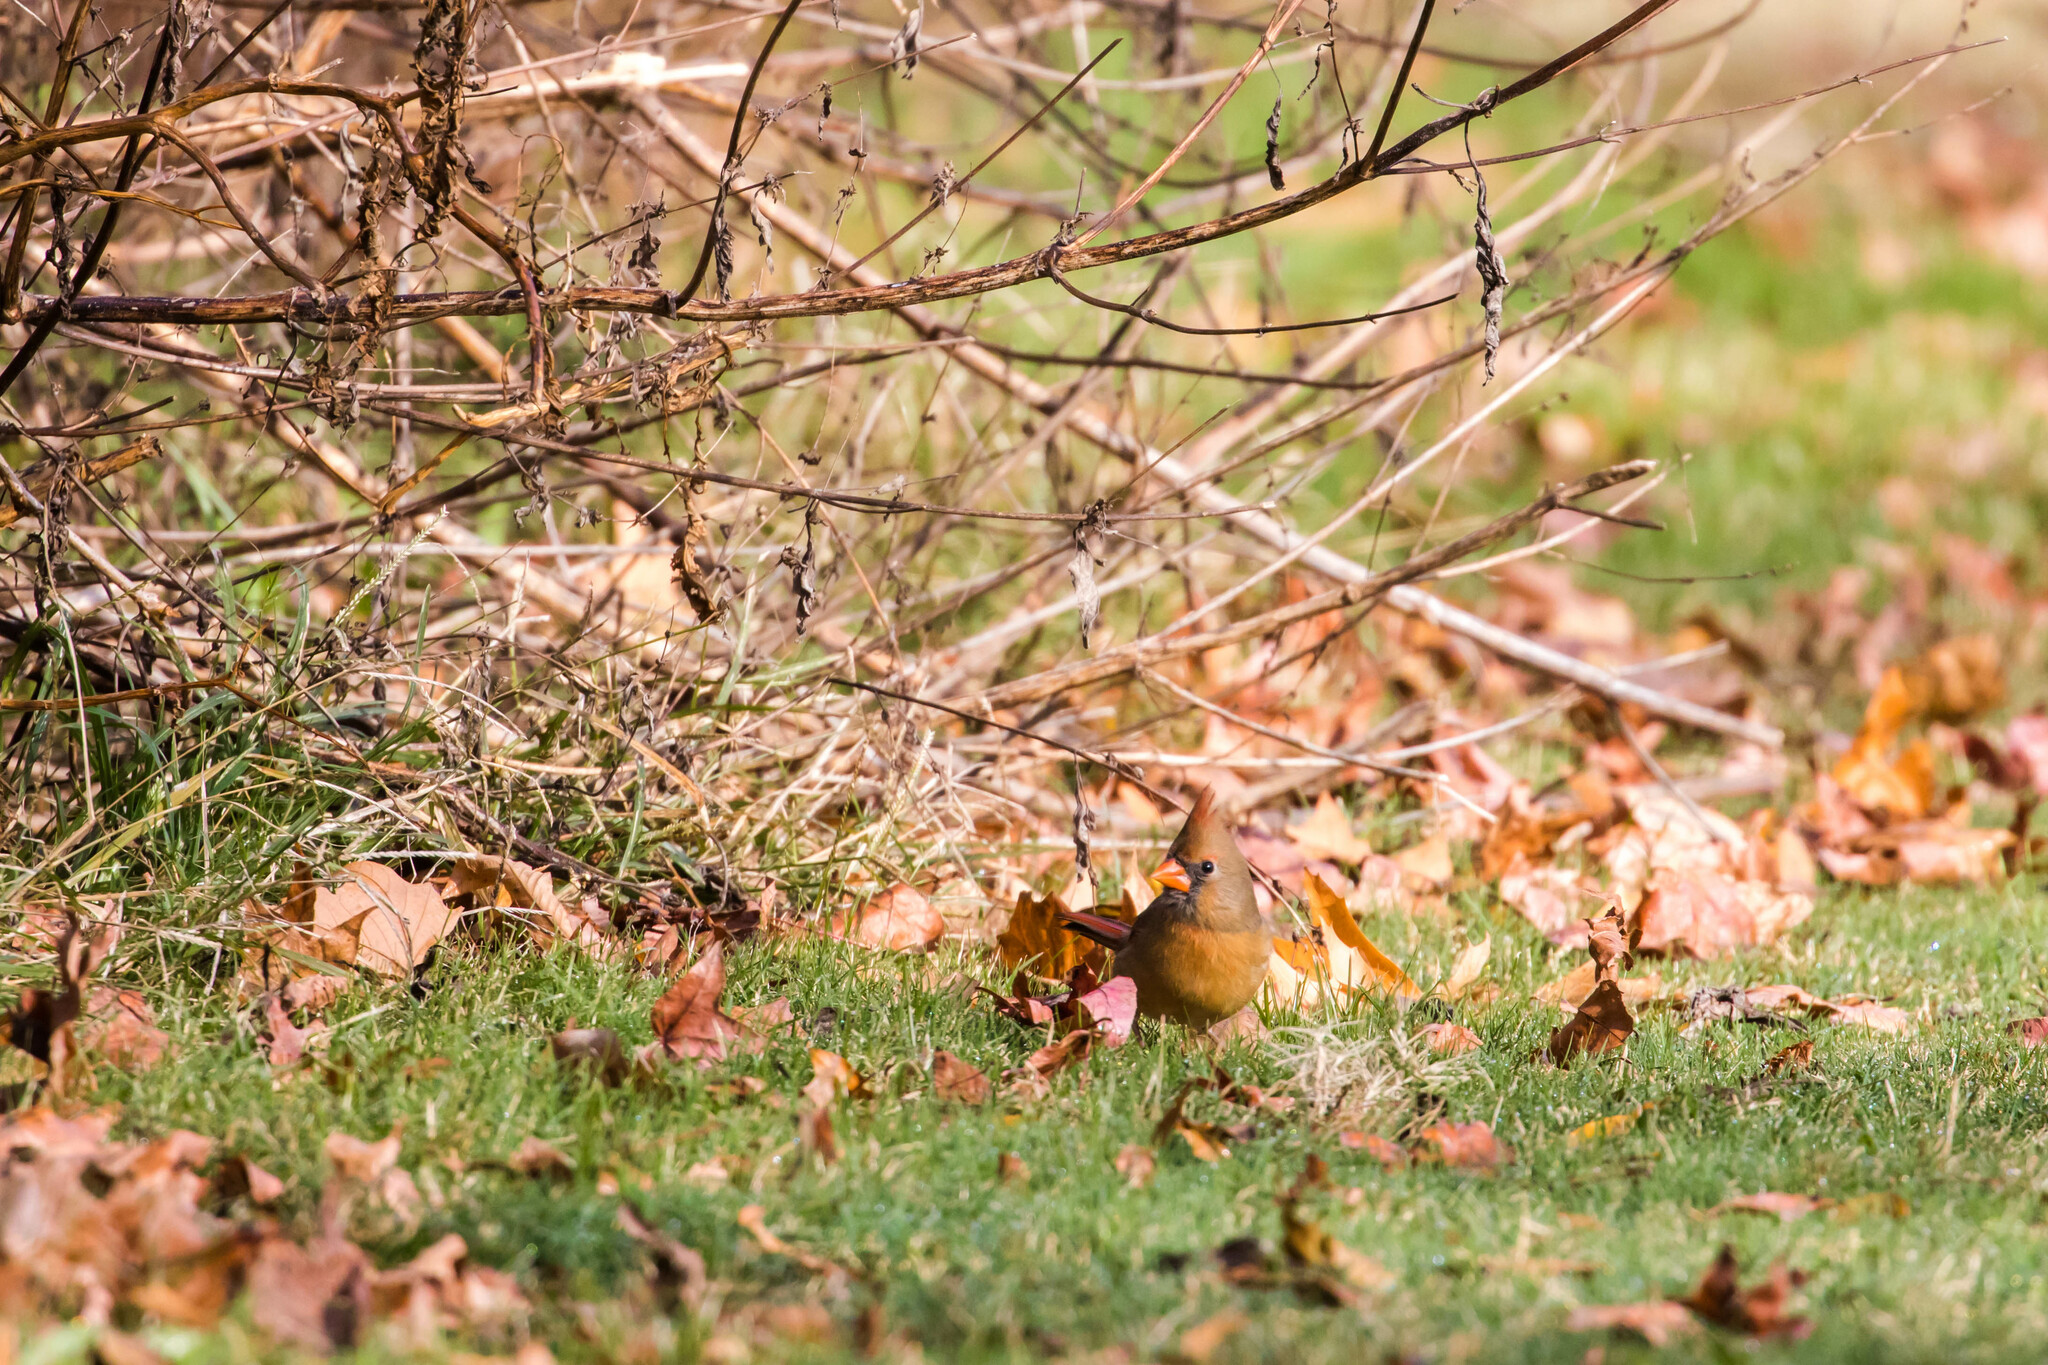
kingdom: Animalia
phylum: Chordata
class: Aves
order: Passeriformes
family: Cardinalidae
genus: Cardinalis
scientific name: Cardinalis cardinalis
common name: Northern cardinal
